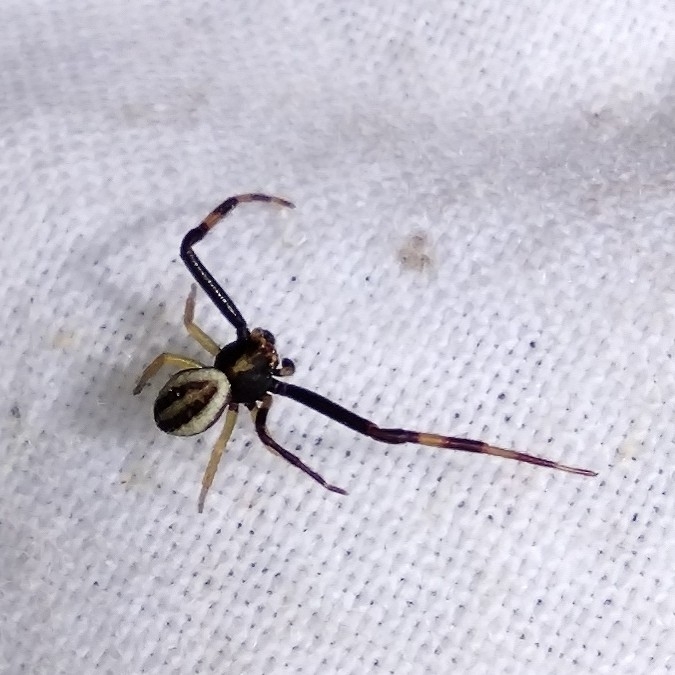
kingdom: Animalia
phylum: Arthropoda
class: Arachnida
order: Araneae
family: Thomisidae
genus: Misumena
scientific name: Misumena vatia
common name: Goldenrod crab spider
